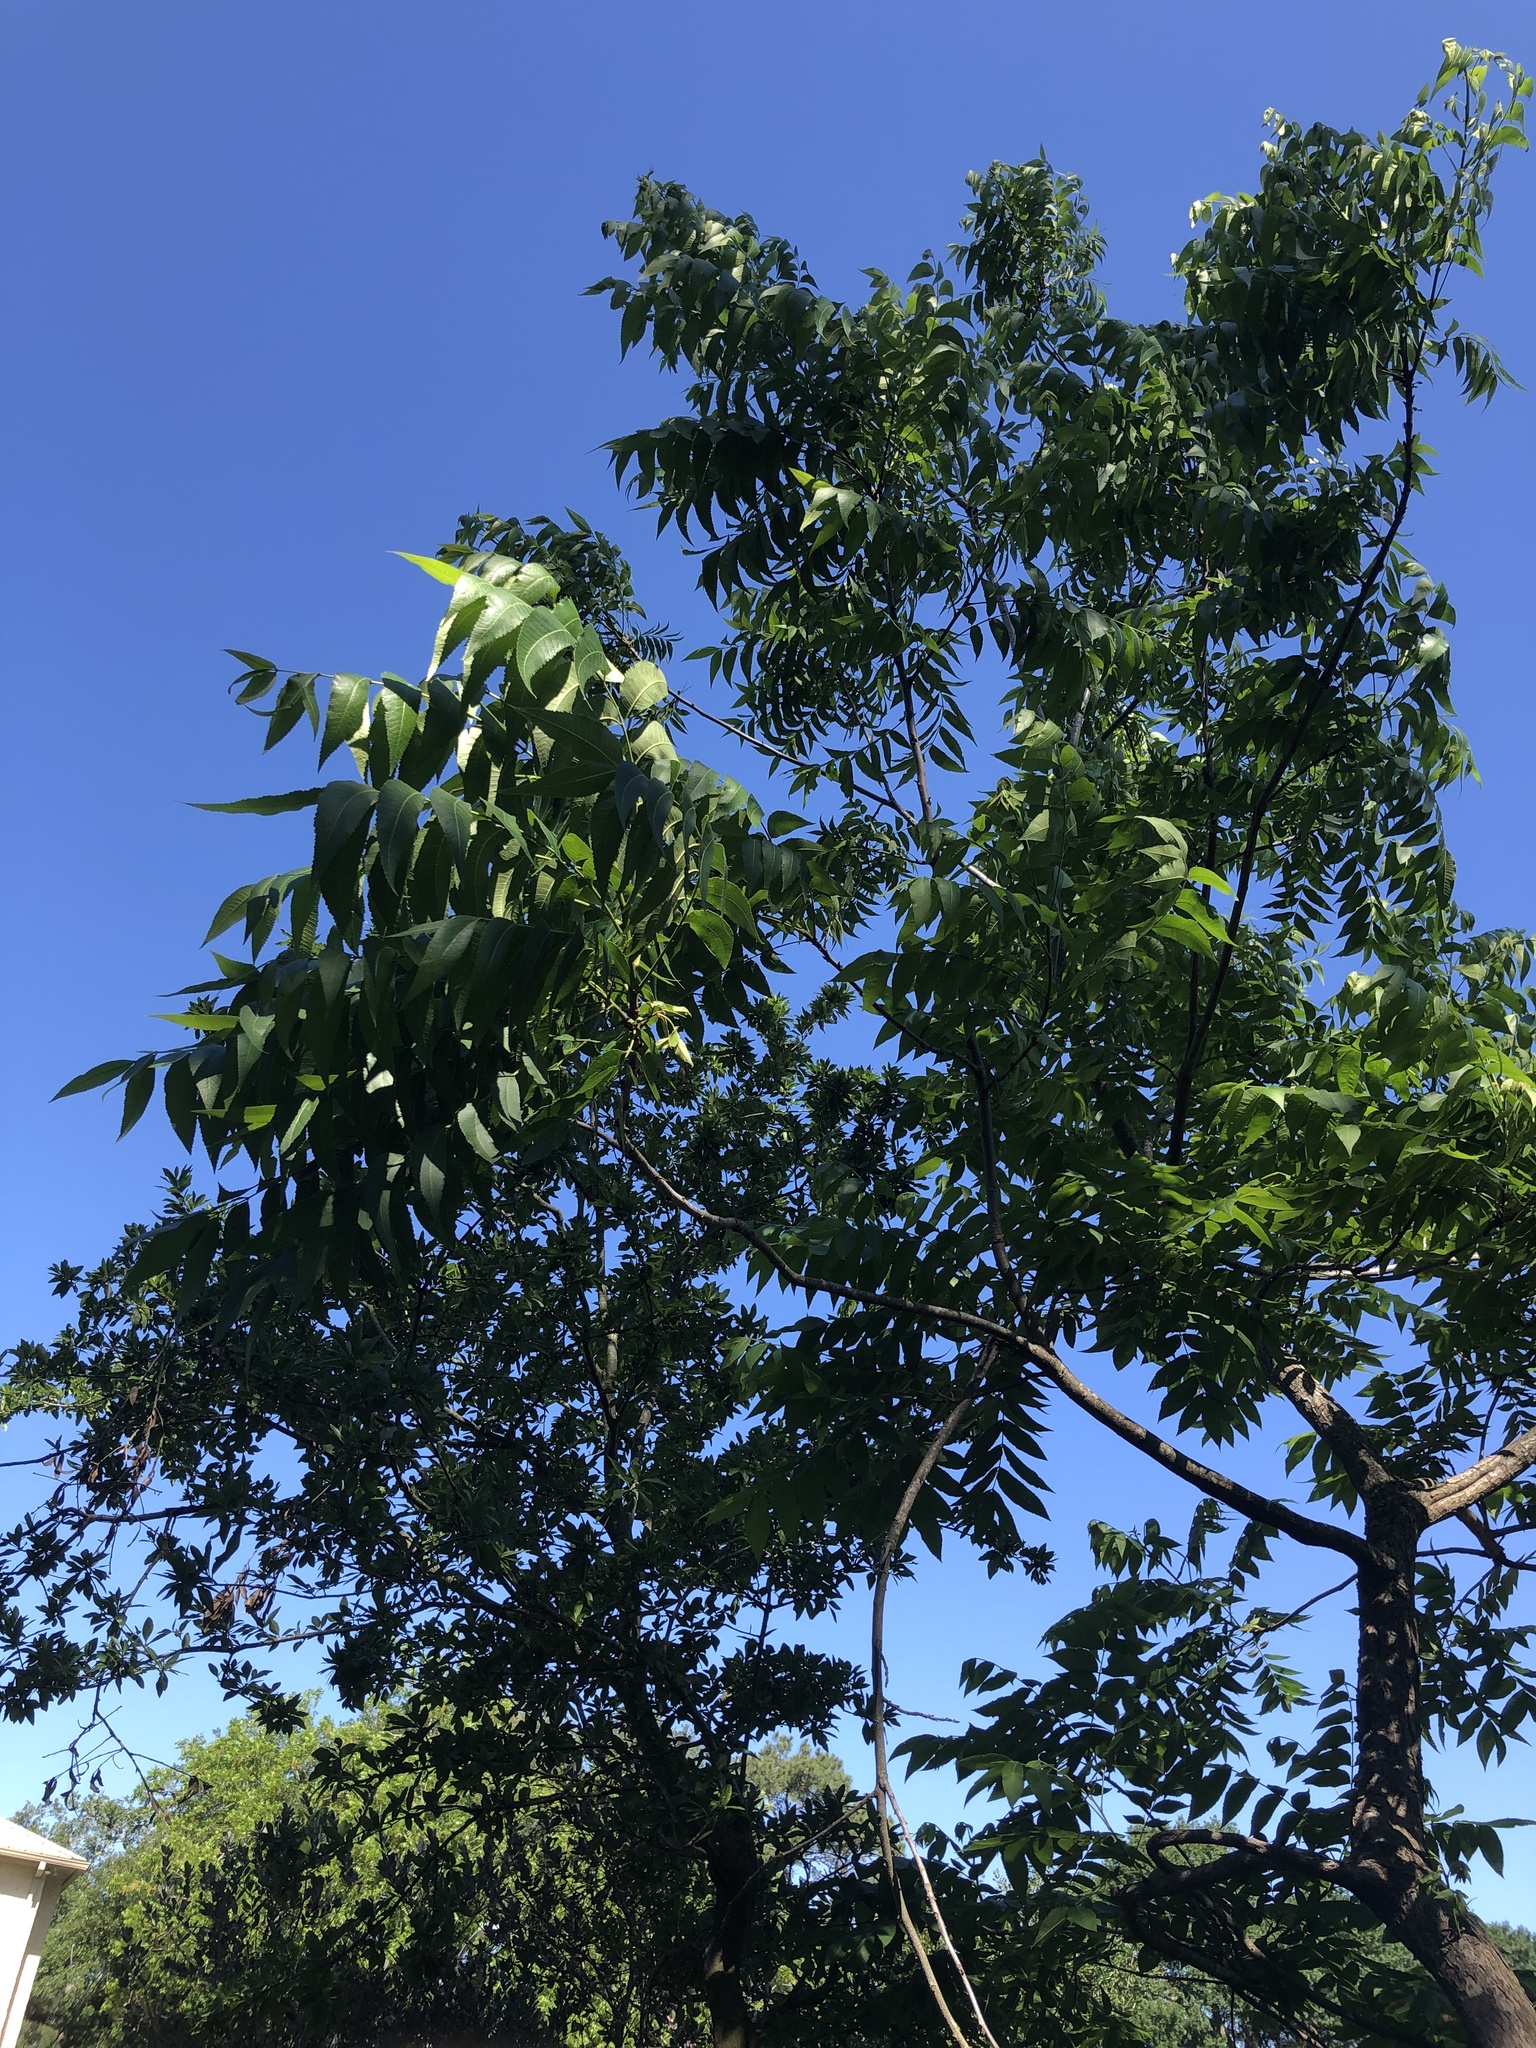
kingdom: Plantae
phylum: Tracheophyta
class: Magnoliopsida
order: Fagales
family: Juglandaceae
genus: Carya
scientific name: Carya illinoinensis
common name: Pecan
